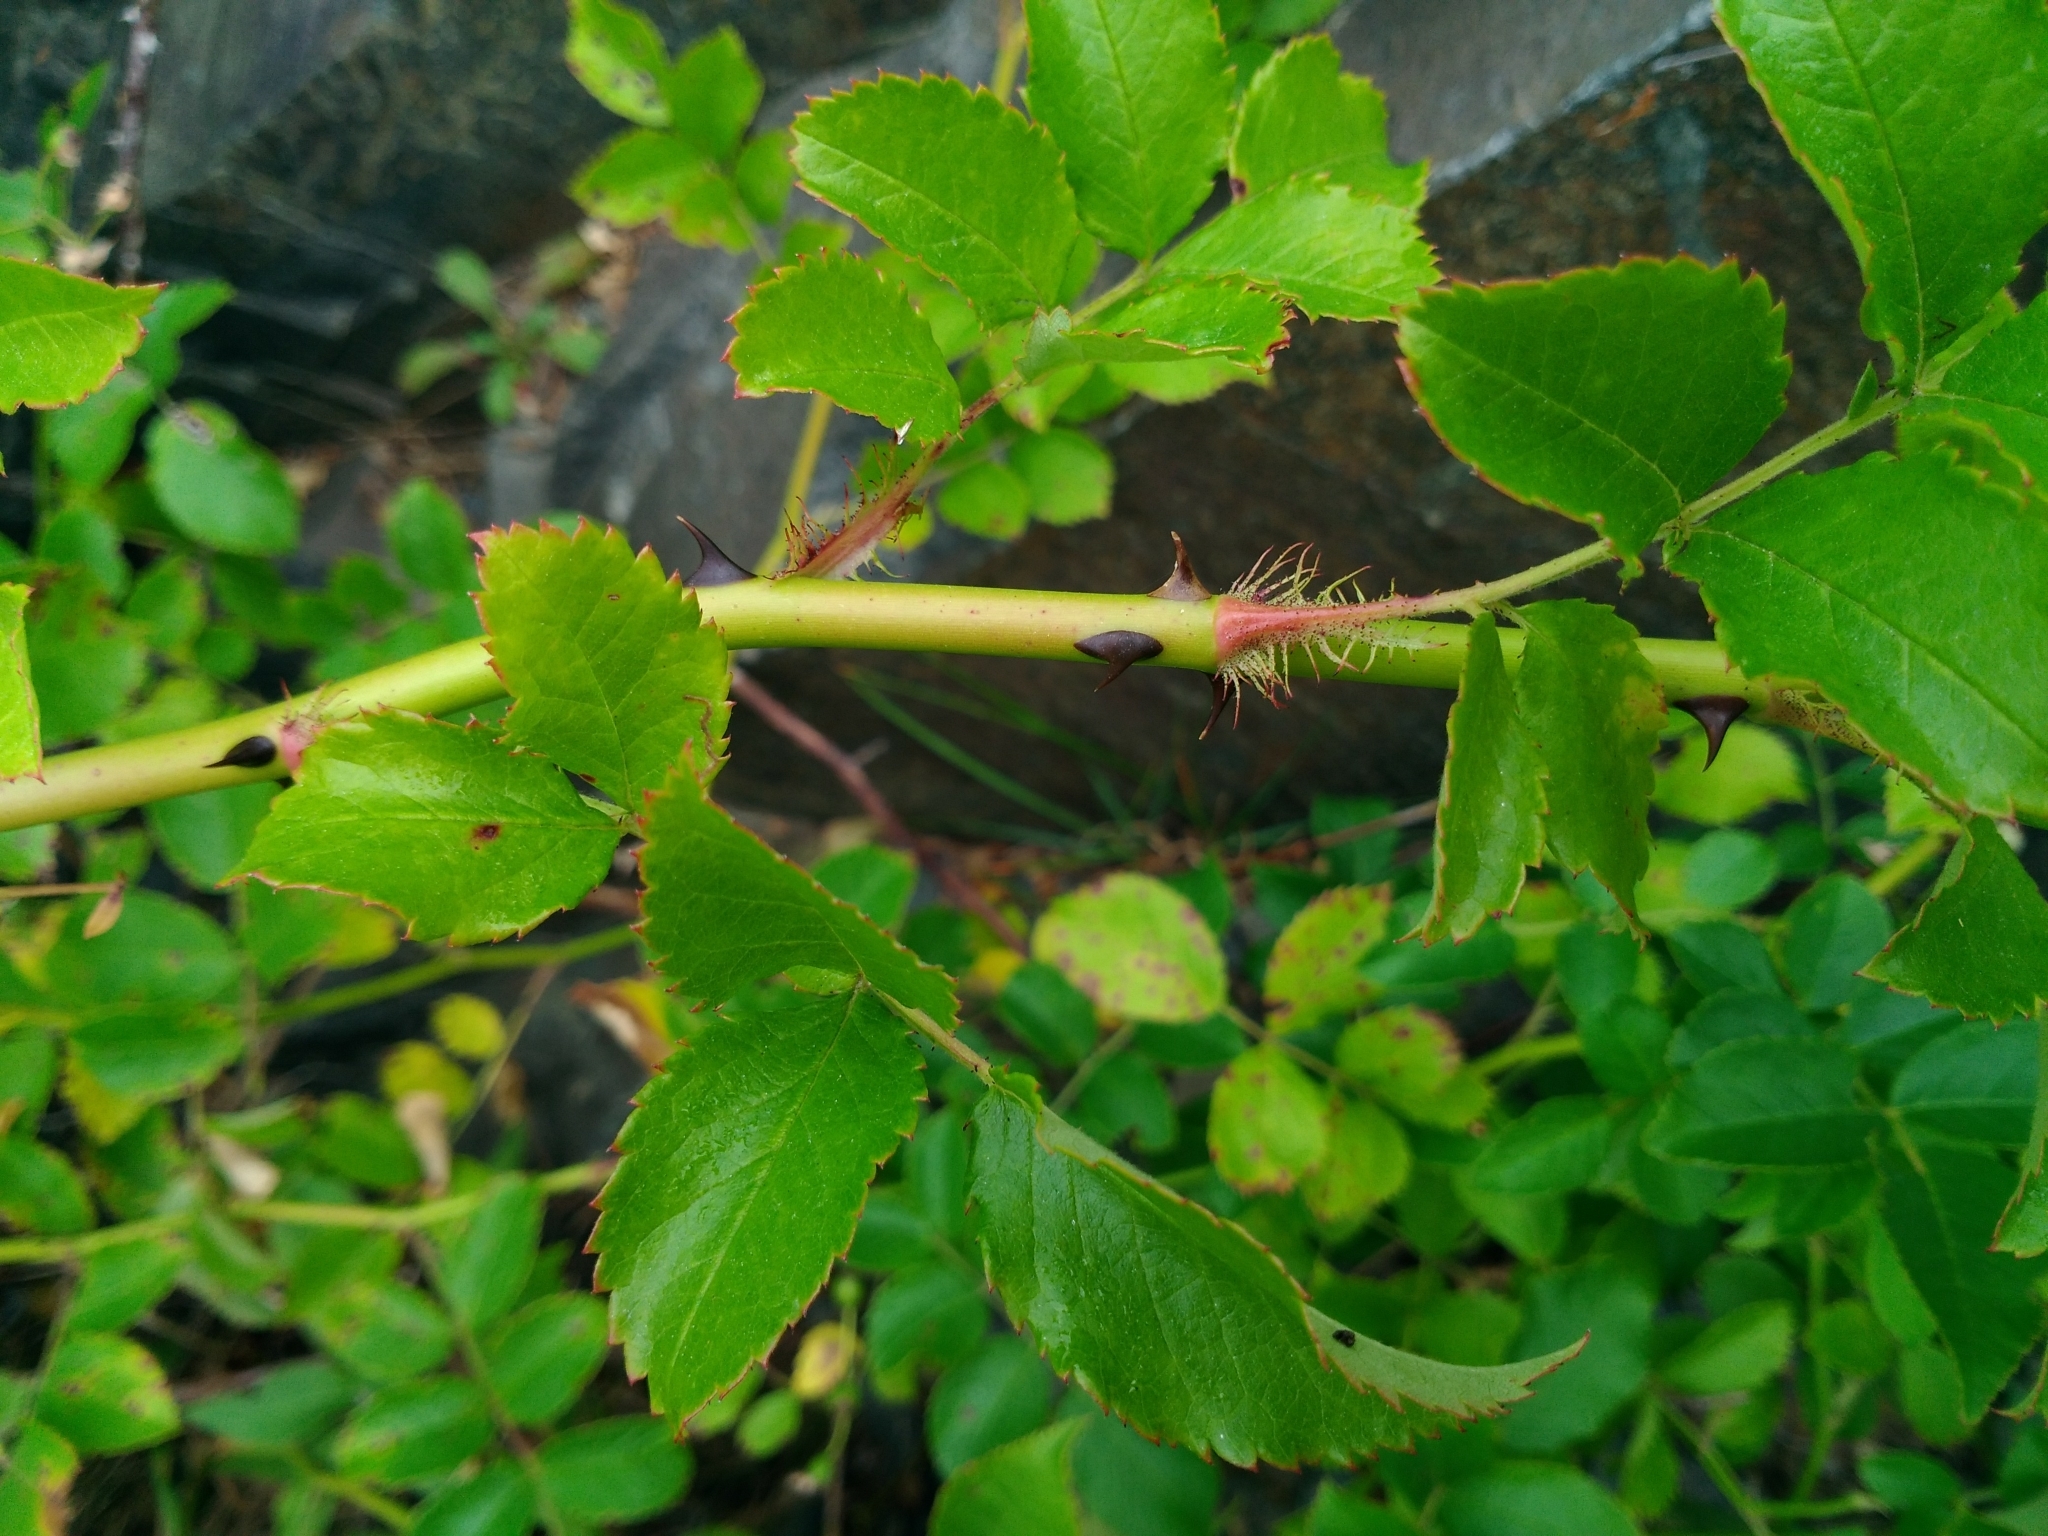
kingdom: Plantae
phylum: Tracheophyta
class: Magnoliopsida
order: Rosales
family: Rosaceae
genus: Rosa
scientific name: Rosa multiflora
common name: Multiflora rose
